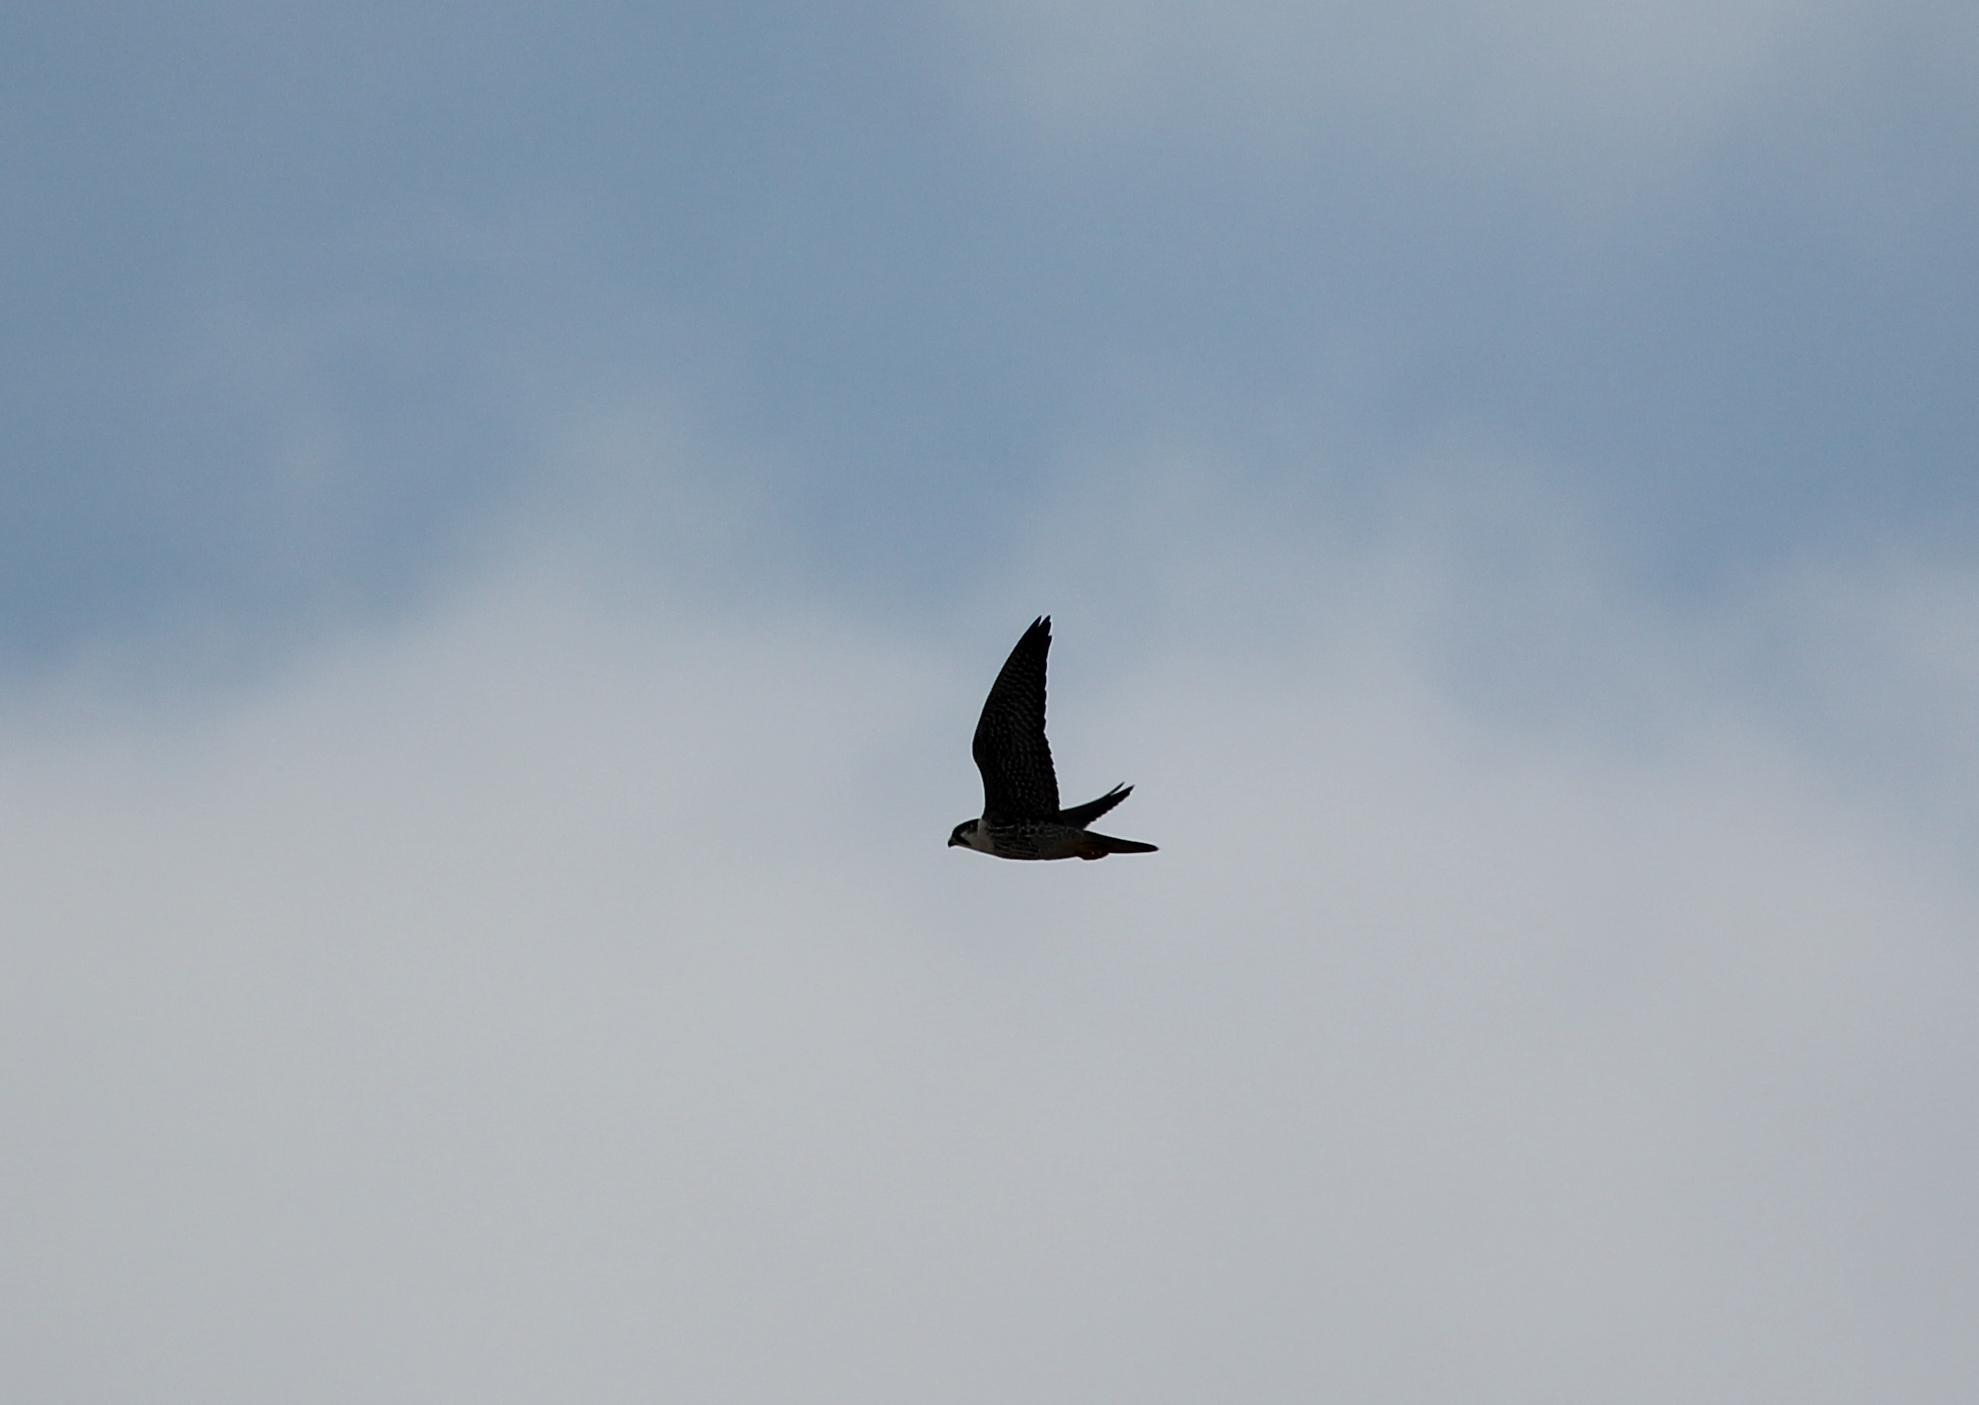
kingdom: Animalia
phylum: Chordata
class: Aves
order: Falconiformes
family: Falconidae
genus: Falco
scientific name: Falco peregrinus
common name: Peregrine falcon
